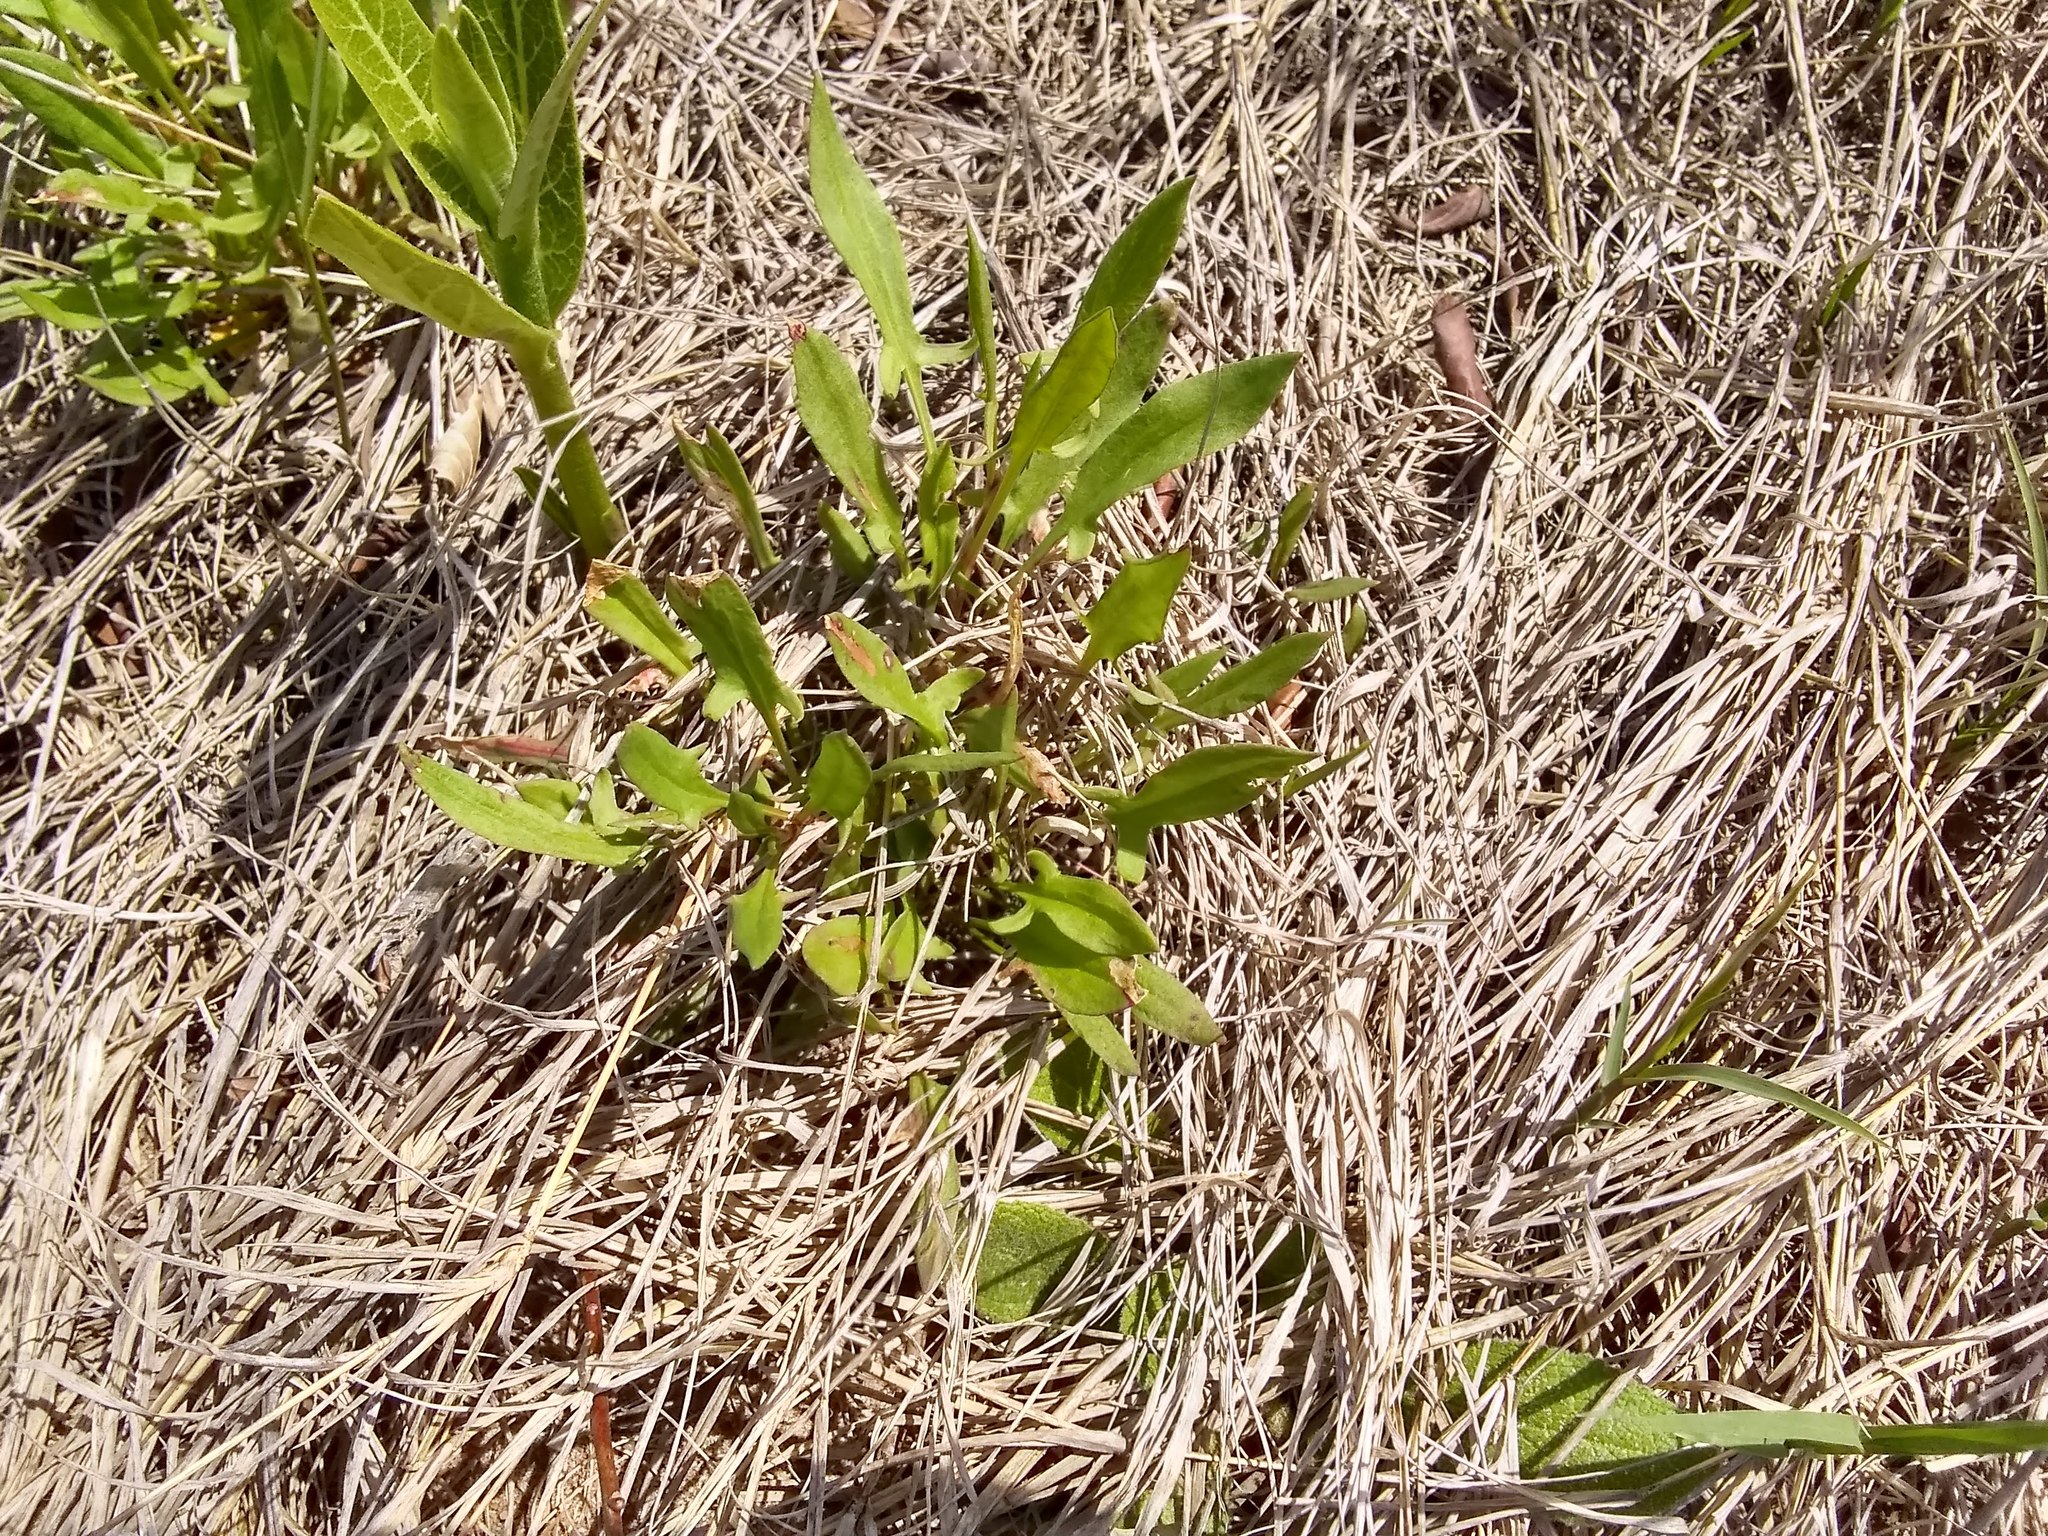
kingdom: Plantae
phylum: Tracheophyta
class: Magnoliopsida
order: Caryophyllales
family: Polygonaceae
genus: Rumex
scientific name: Rumex acetosella
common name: Common sheep sorrel
